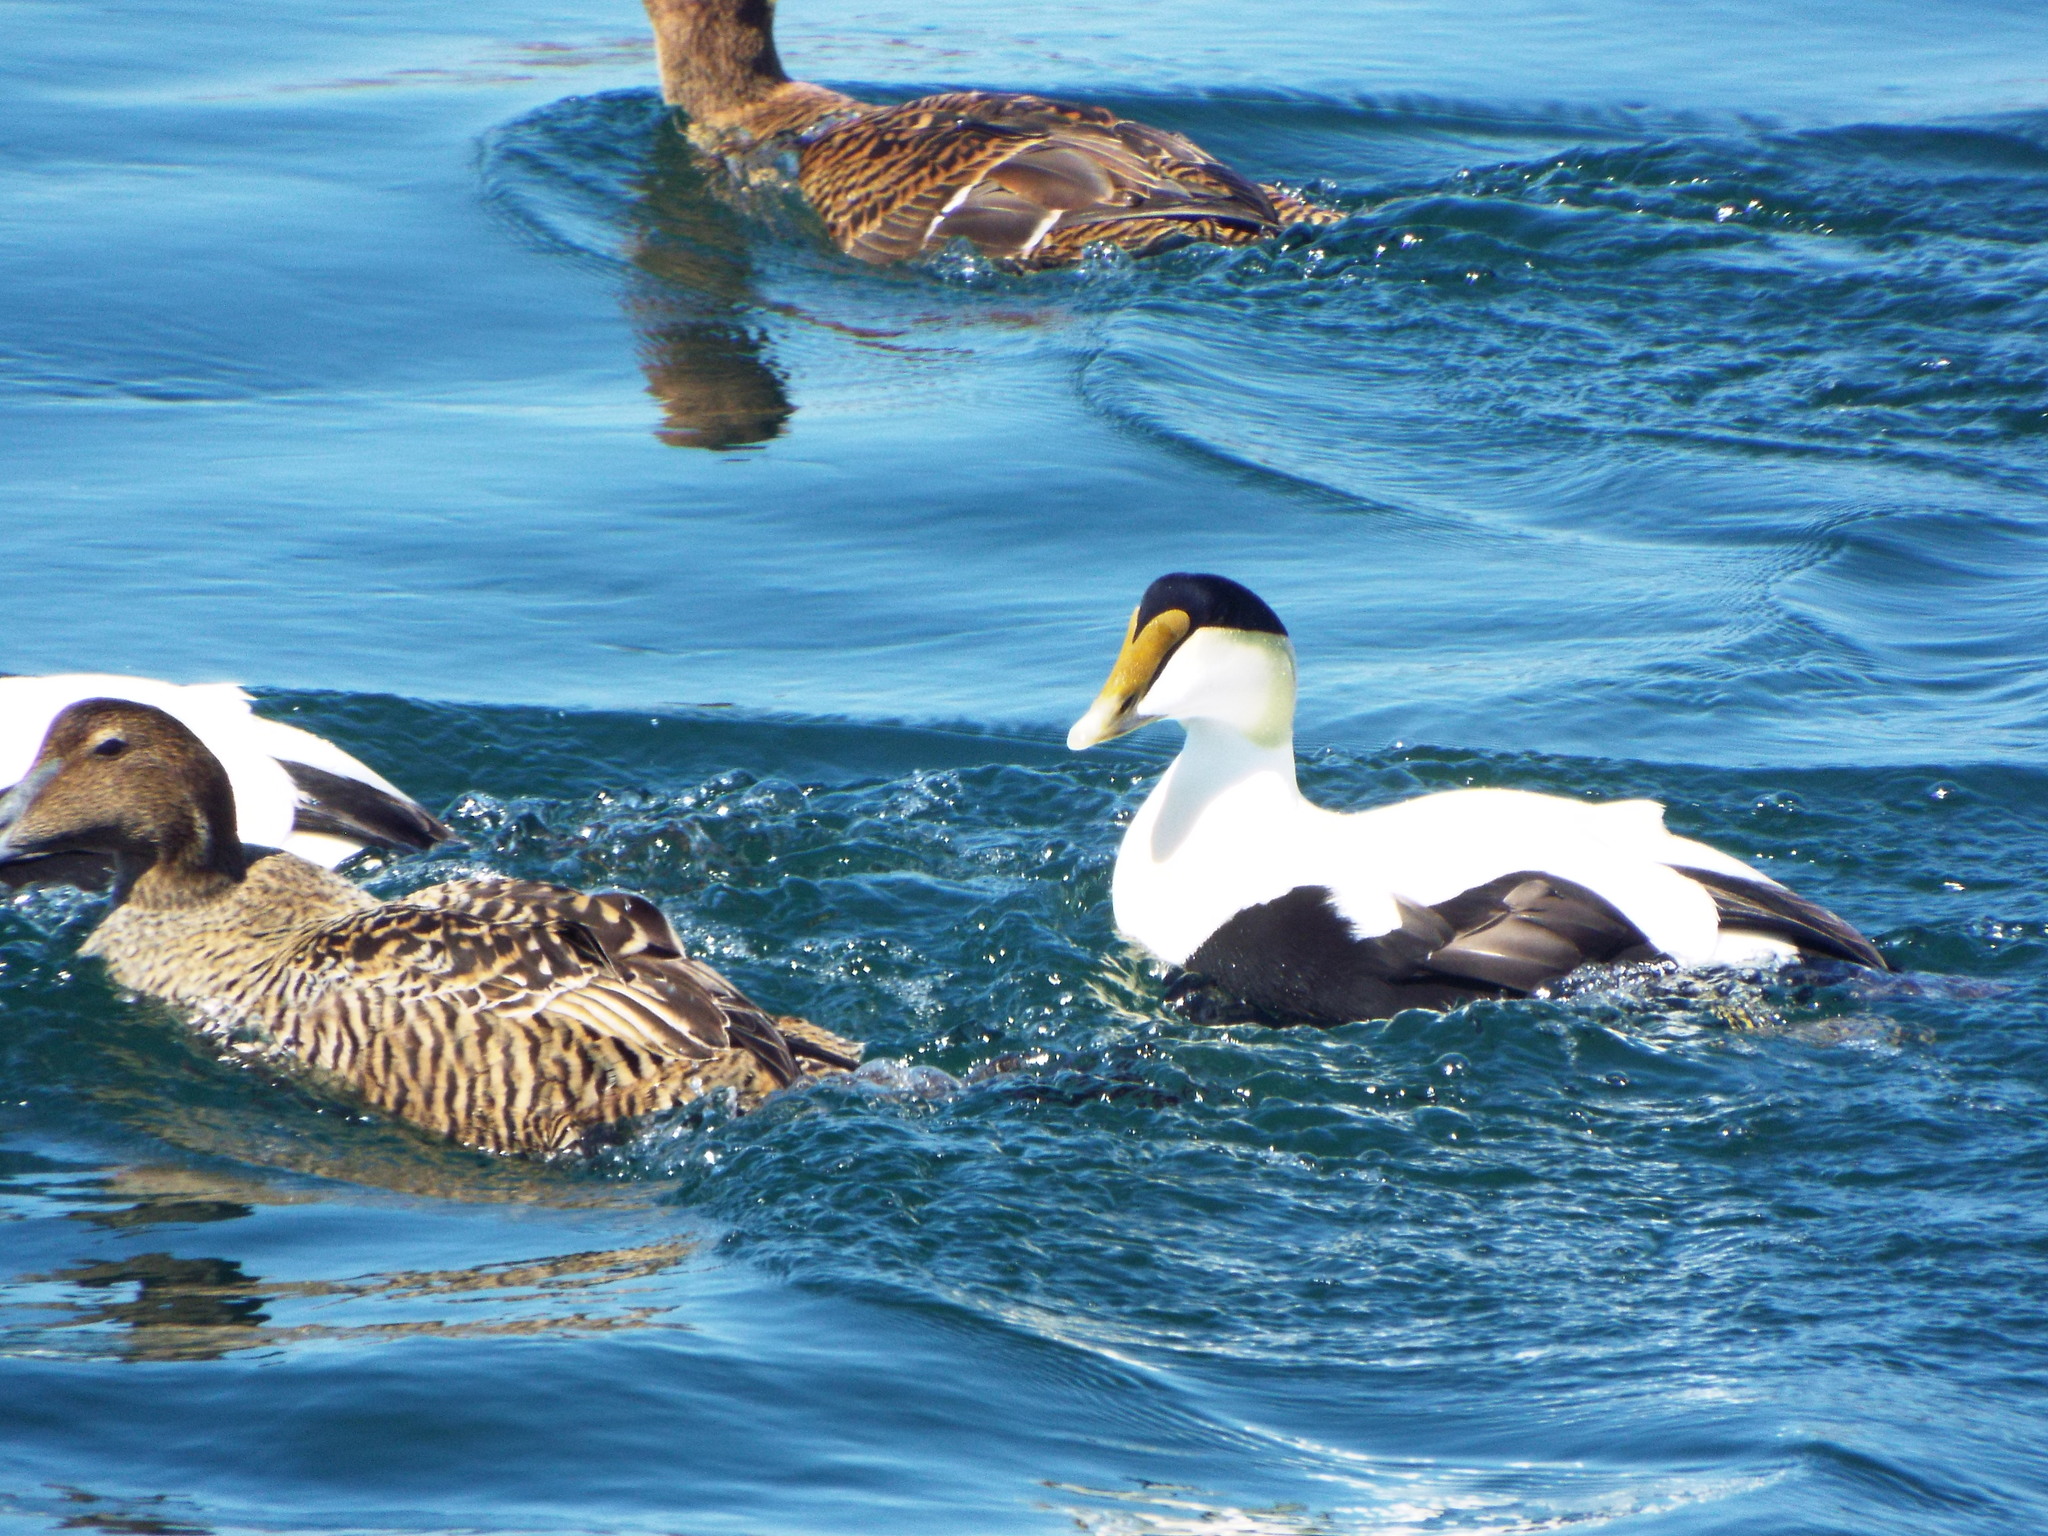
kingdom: Animalia
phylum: Chordata
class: Aves
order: Anseriformes
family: Anatidae
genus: Somateria
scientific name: Somateria mollissima
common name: Common eider
